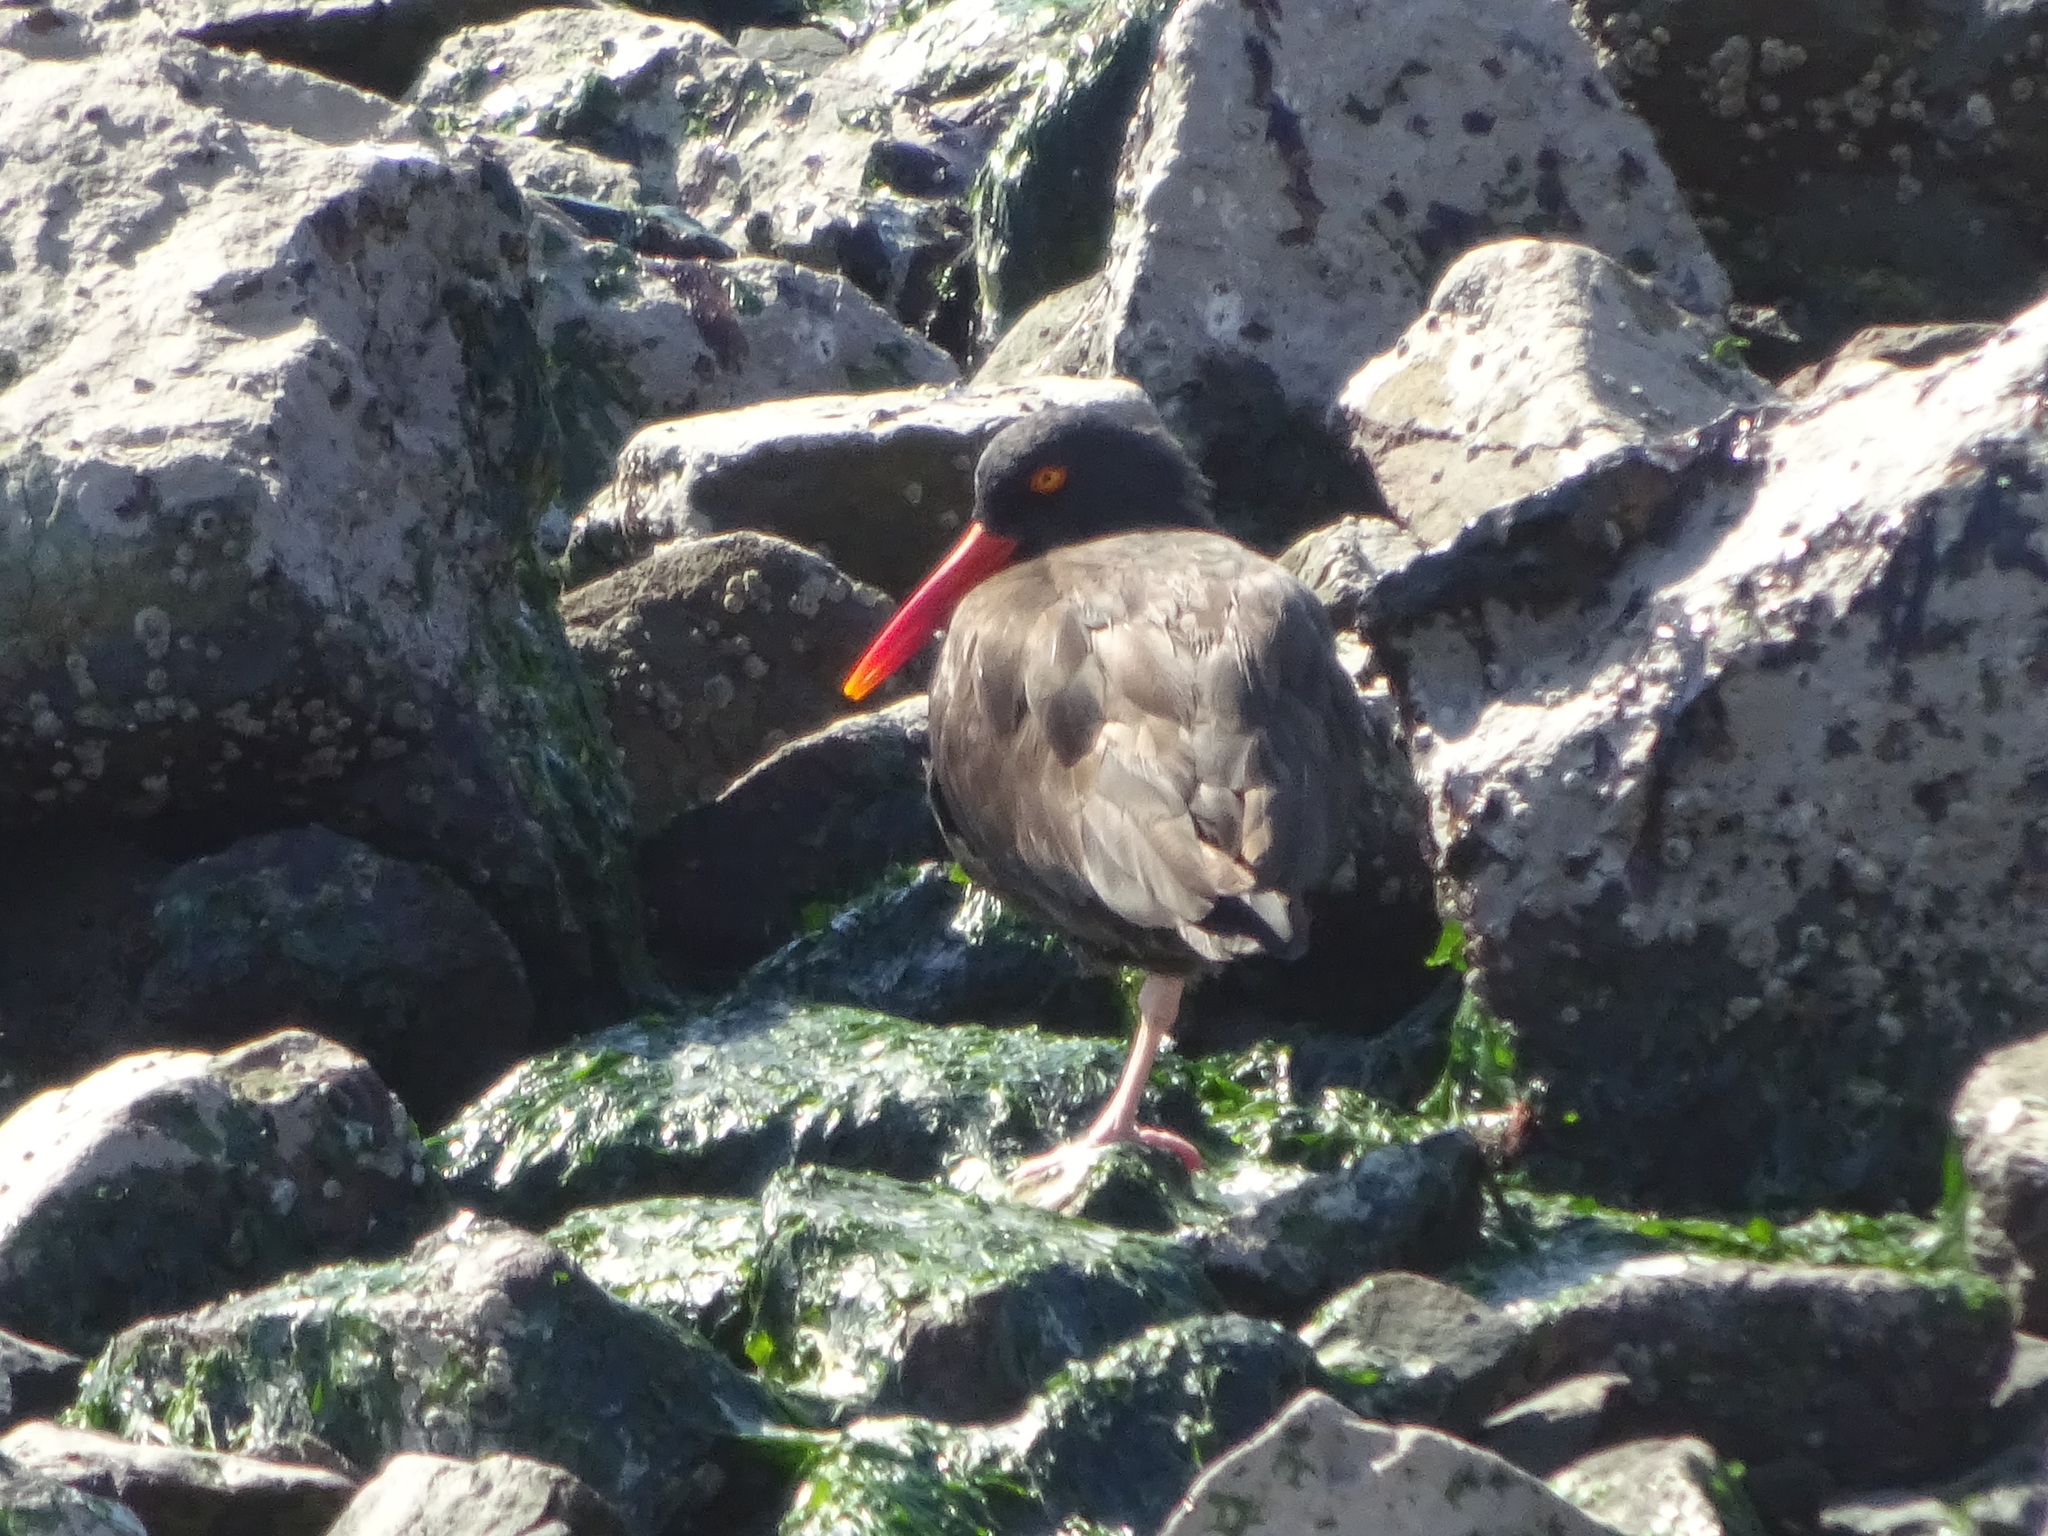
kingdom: Animalia
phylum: Chordata
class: Aves
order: Charadriiformes
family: Haematopodidae
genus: Haematopus
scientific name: Haematopus bachmani
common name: Black oystercatcher
